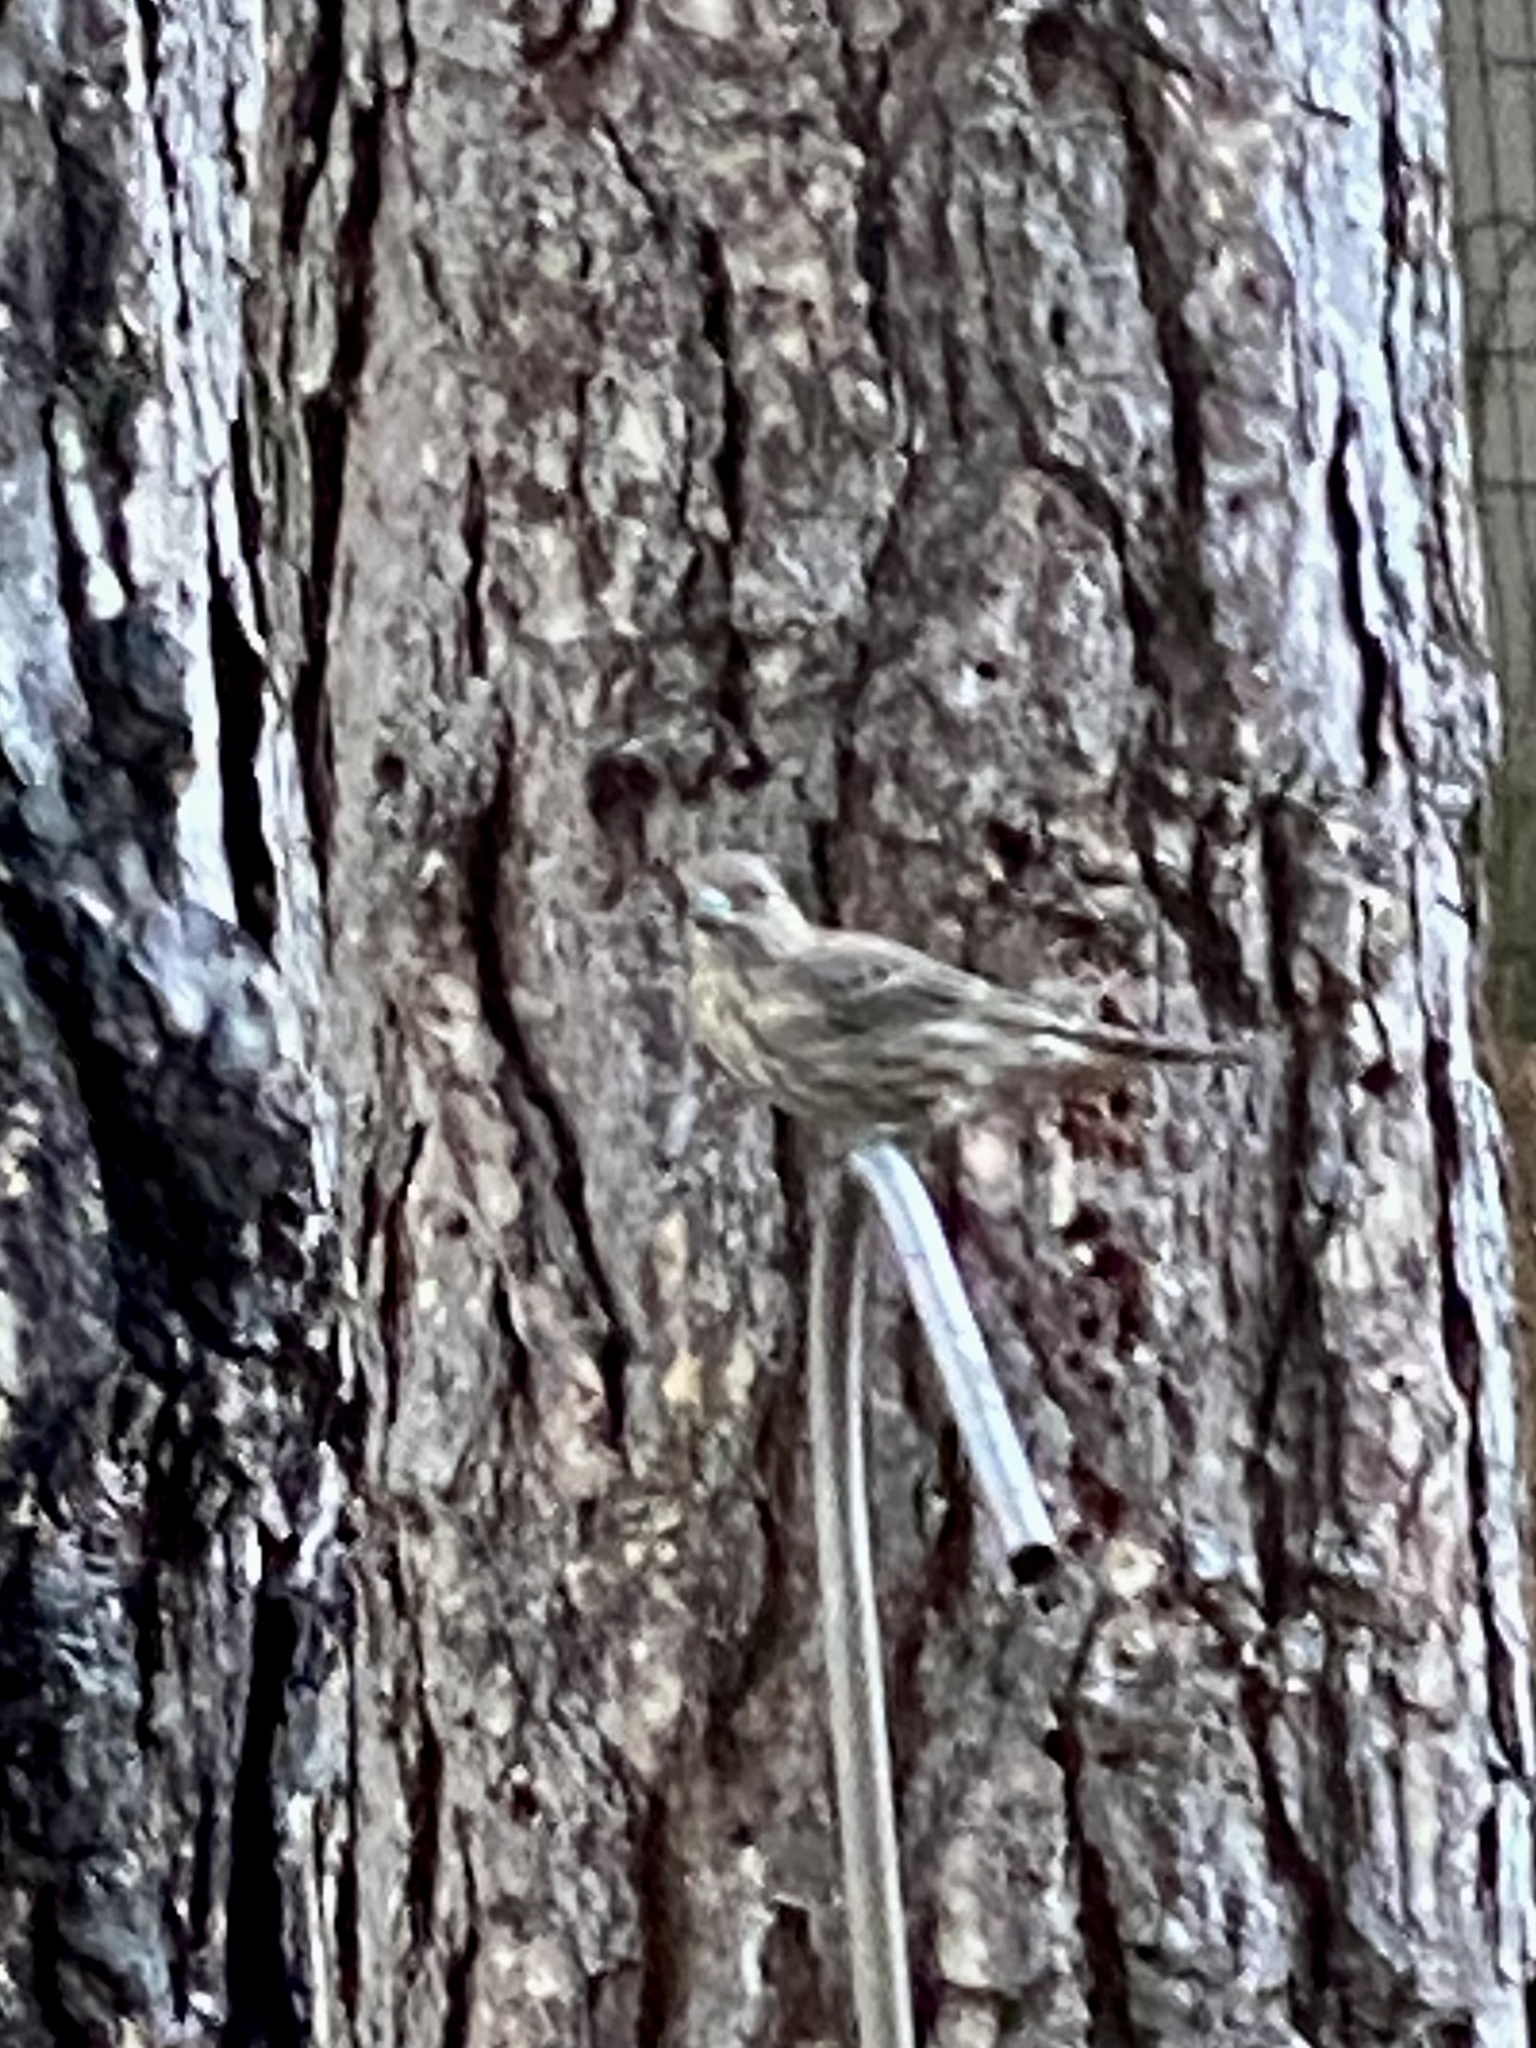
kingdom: Animalia
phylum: Chordata
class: Aves
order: Passeriformes
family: Fringillidae
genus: Haemorhous
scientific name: Haemorhous mexicanus
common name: House finch
